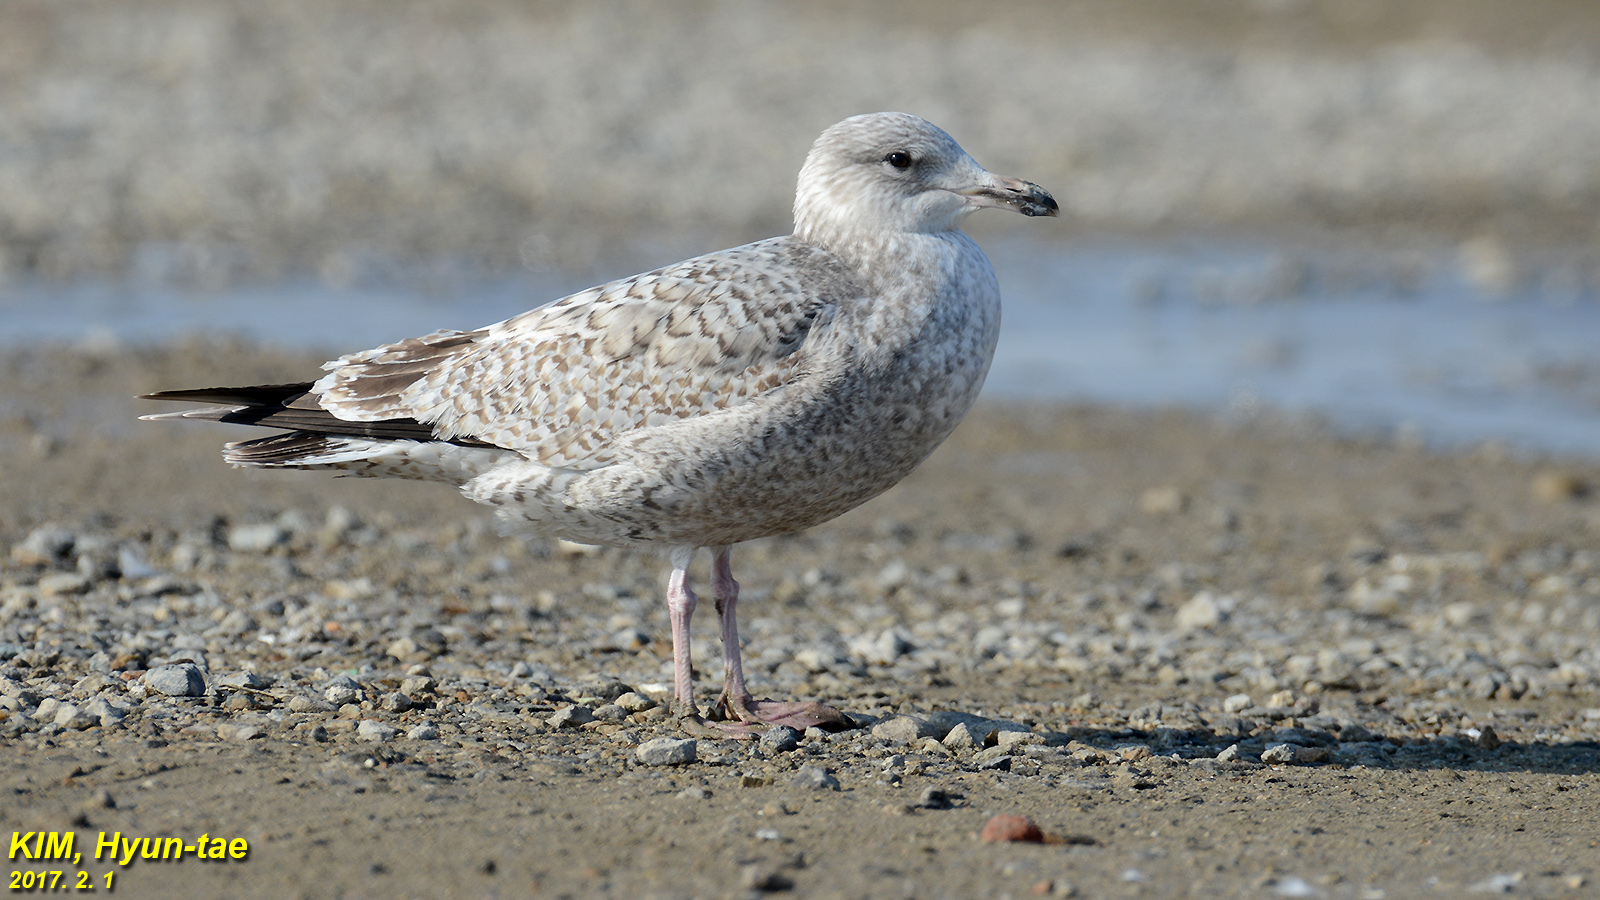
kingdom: Animalia
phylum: Chordata
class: Aves
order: Charadriiformes
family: Laridae
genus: Larus
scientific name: Larus vegae
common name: Vega gull
